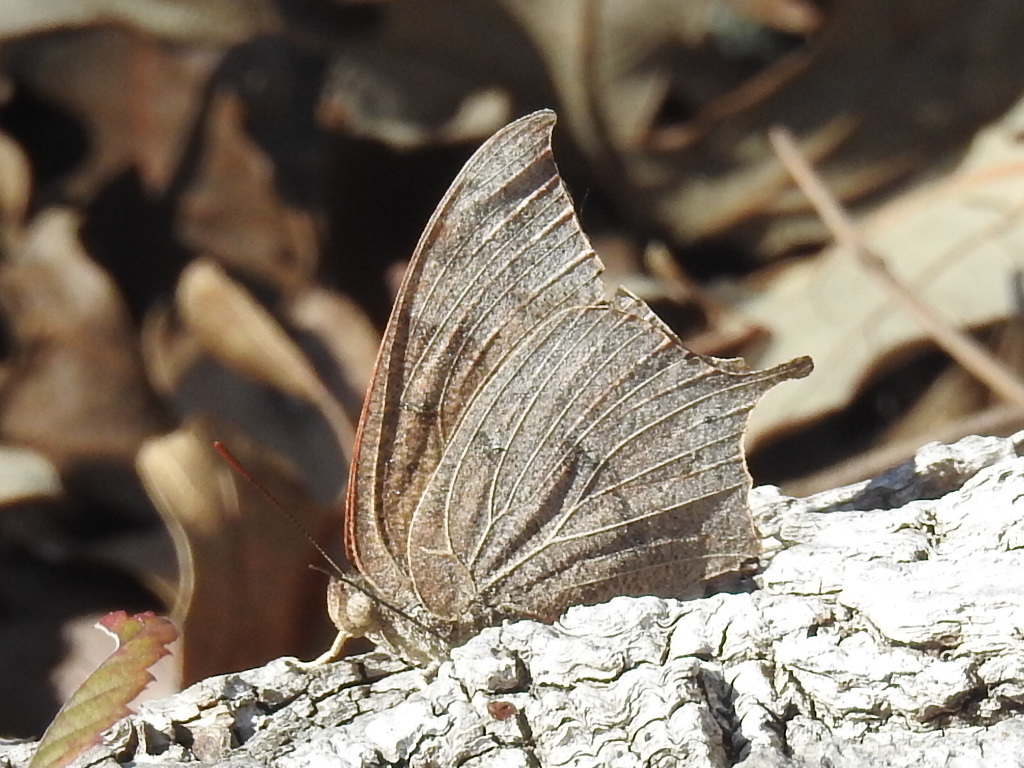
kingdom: Animalia
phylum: Arthropoda
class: Insecta
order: Lepidoptera
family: Nymphalidae
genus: Anaea
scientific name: Anaea andria
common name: Goatweed leafwing
